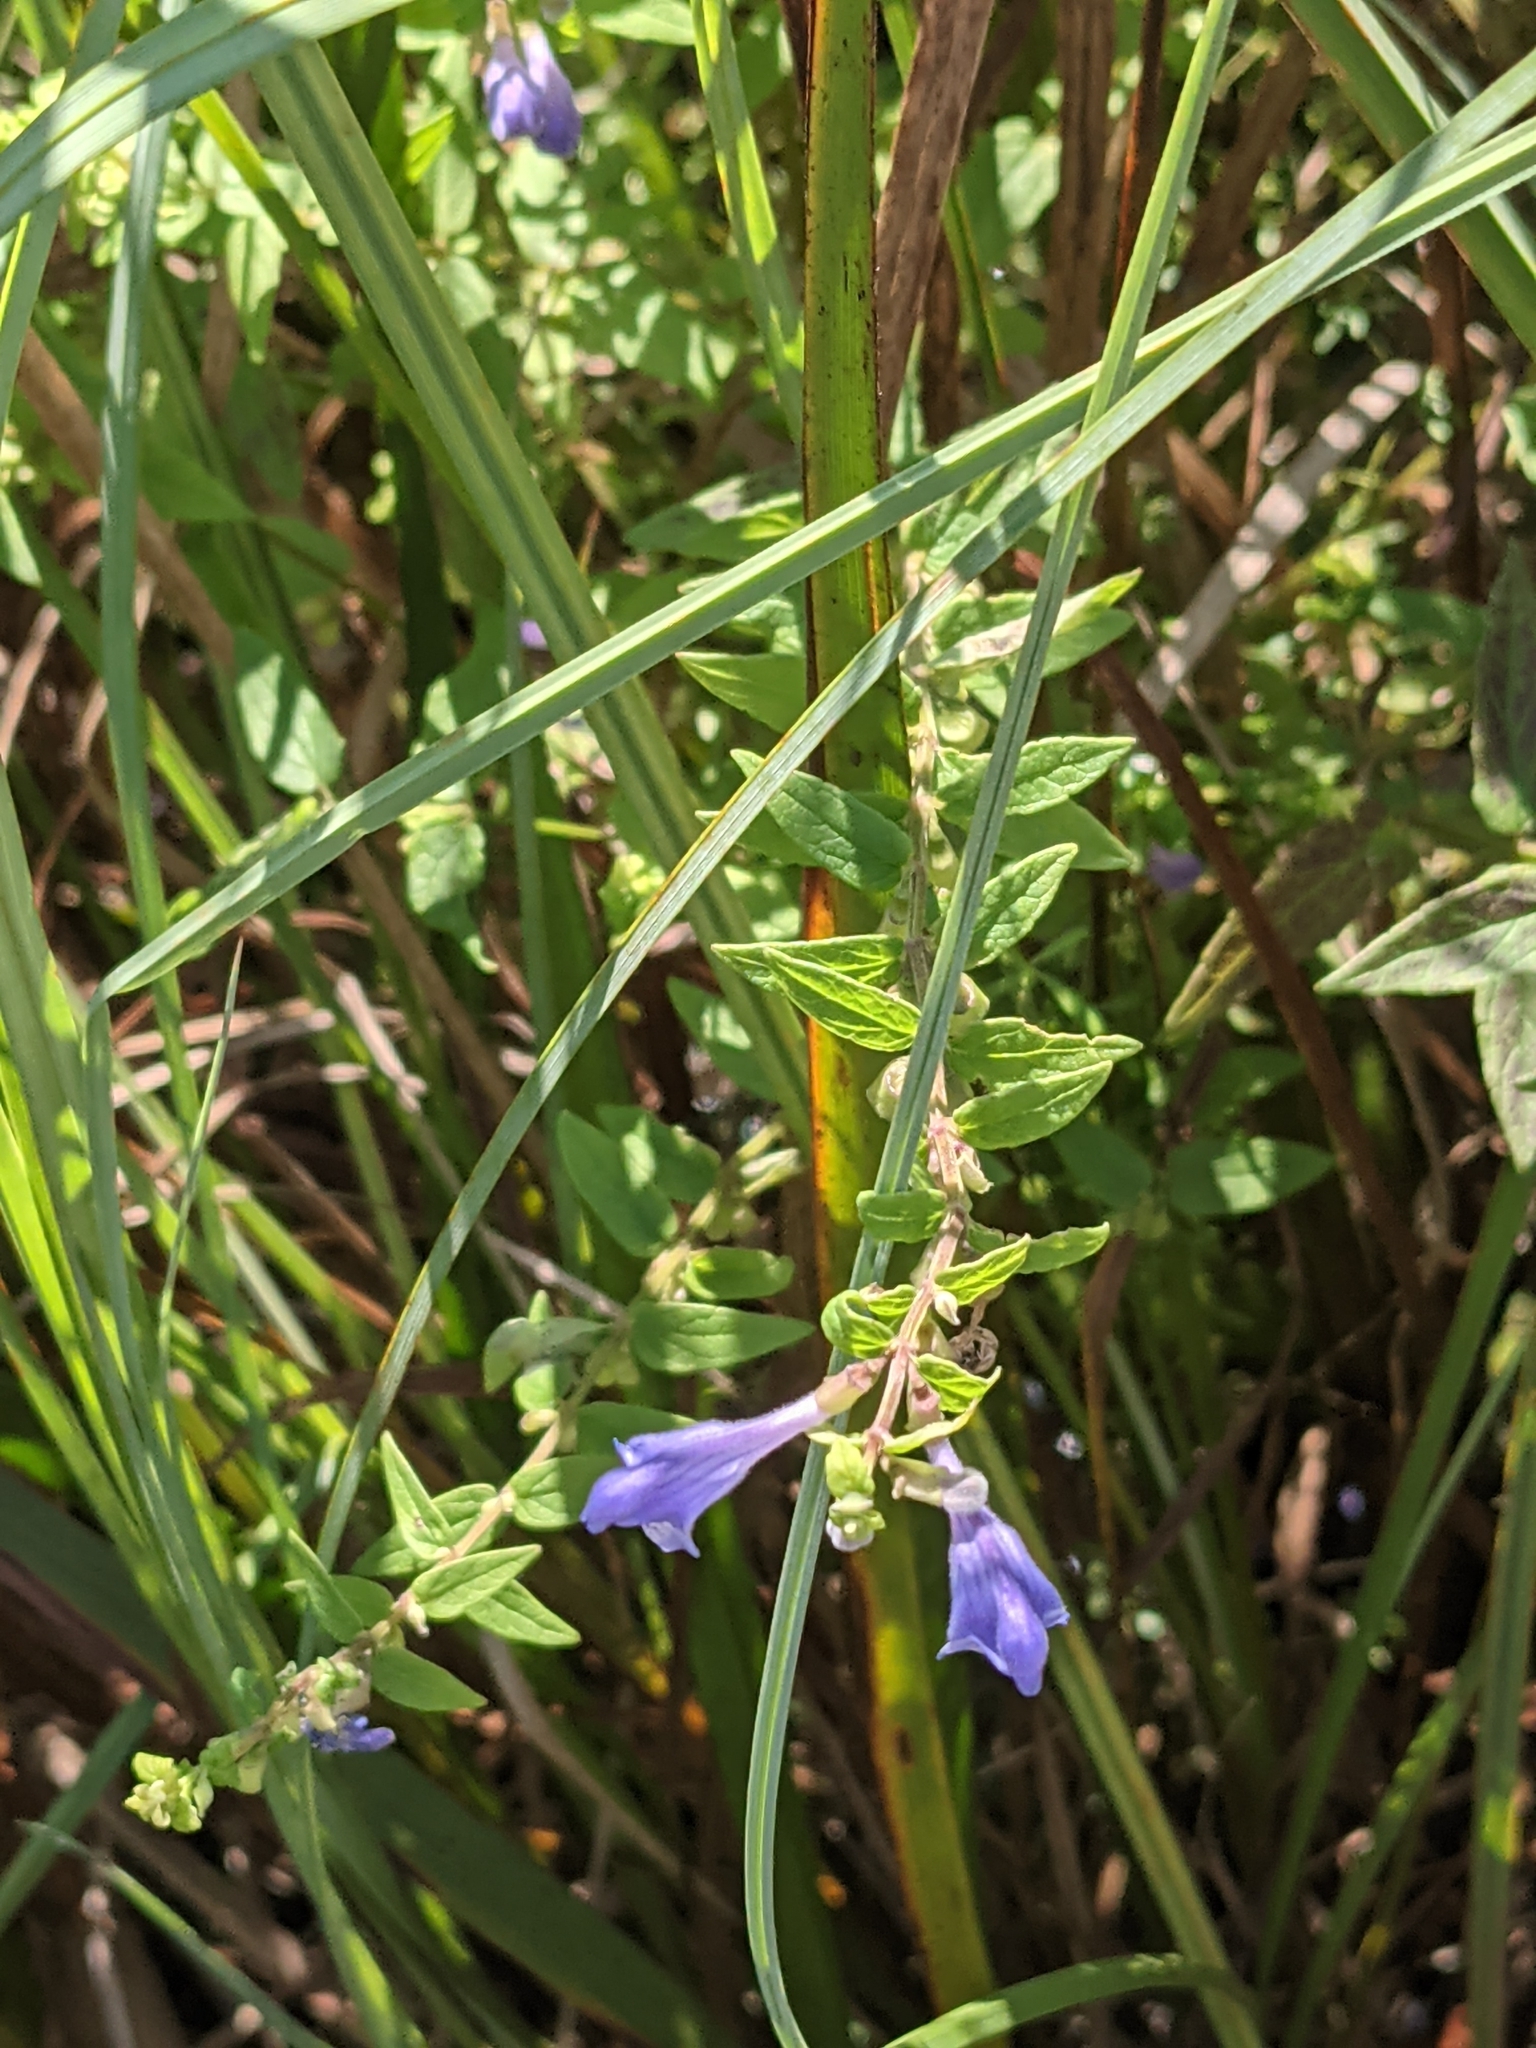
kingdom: Plantae
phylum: Tracheophyta
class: Magnoliopsida
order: Lamiales
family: Lamiaceae
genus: Scutellaria
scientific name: Scutellaria galericulata
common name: Skullcap
